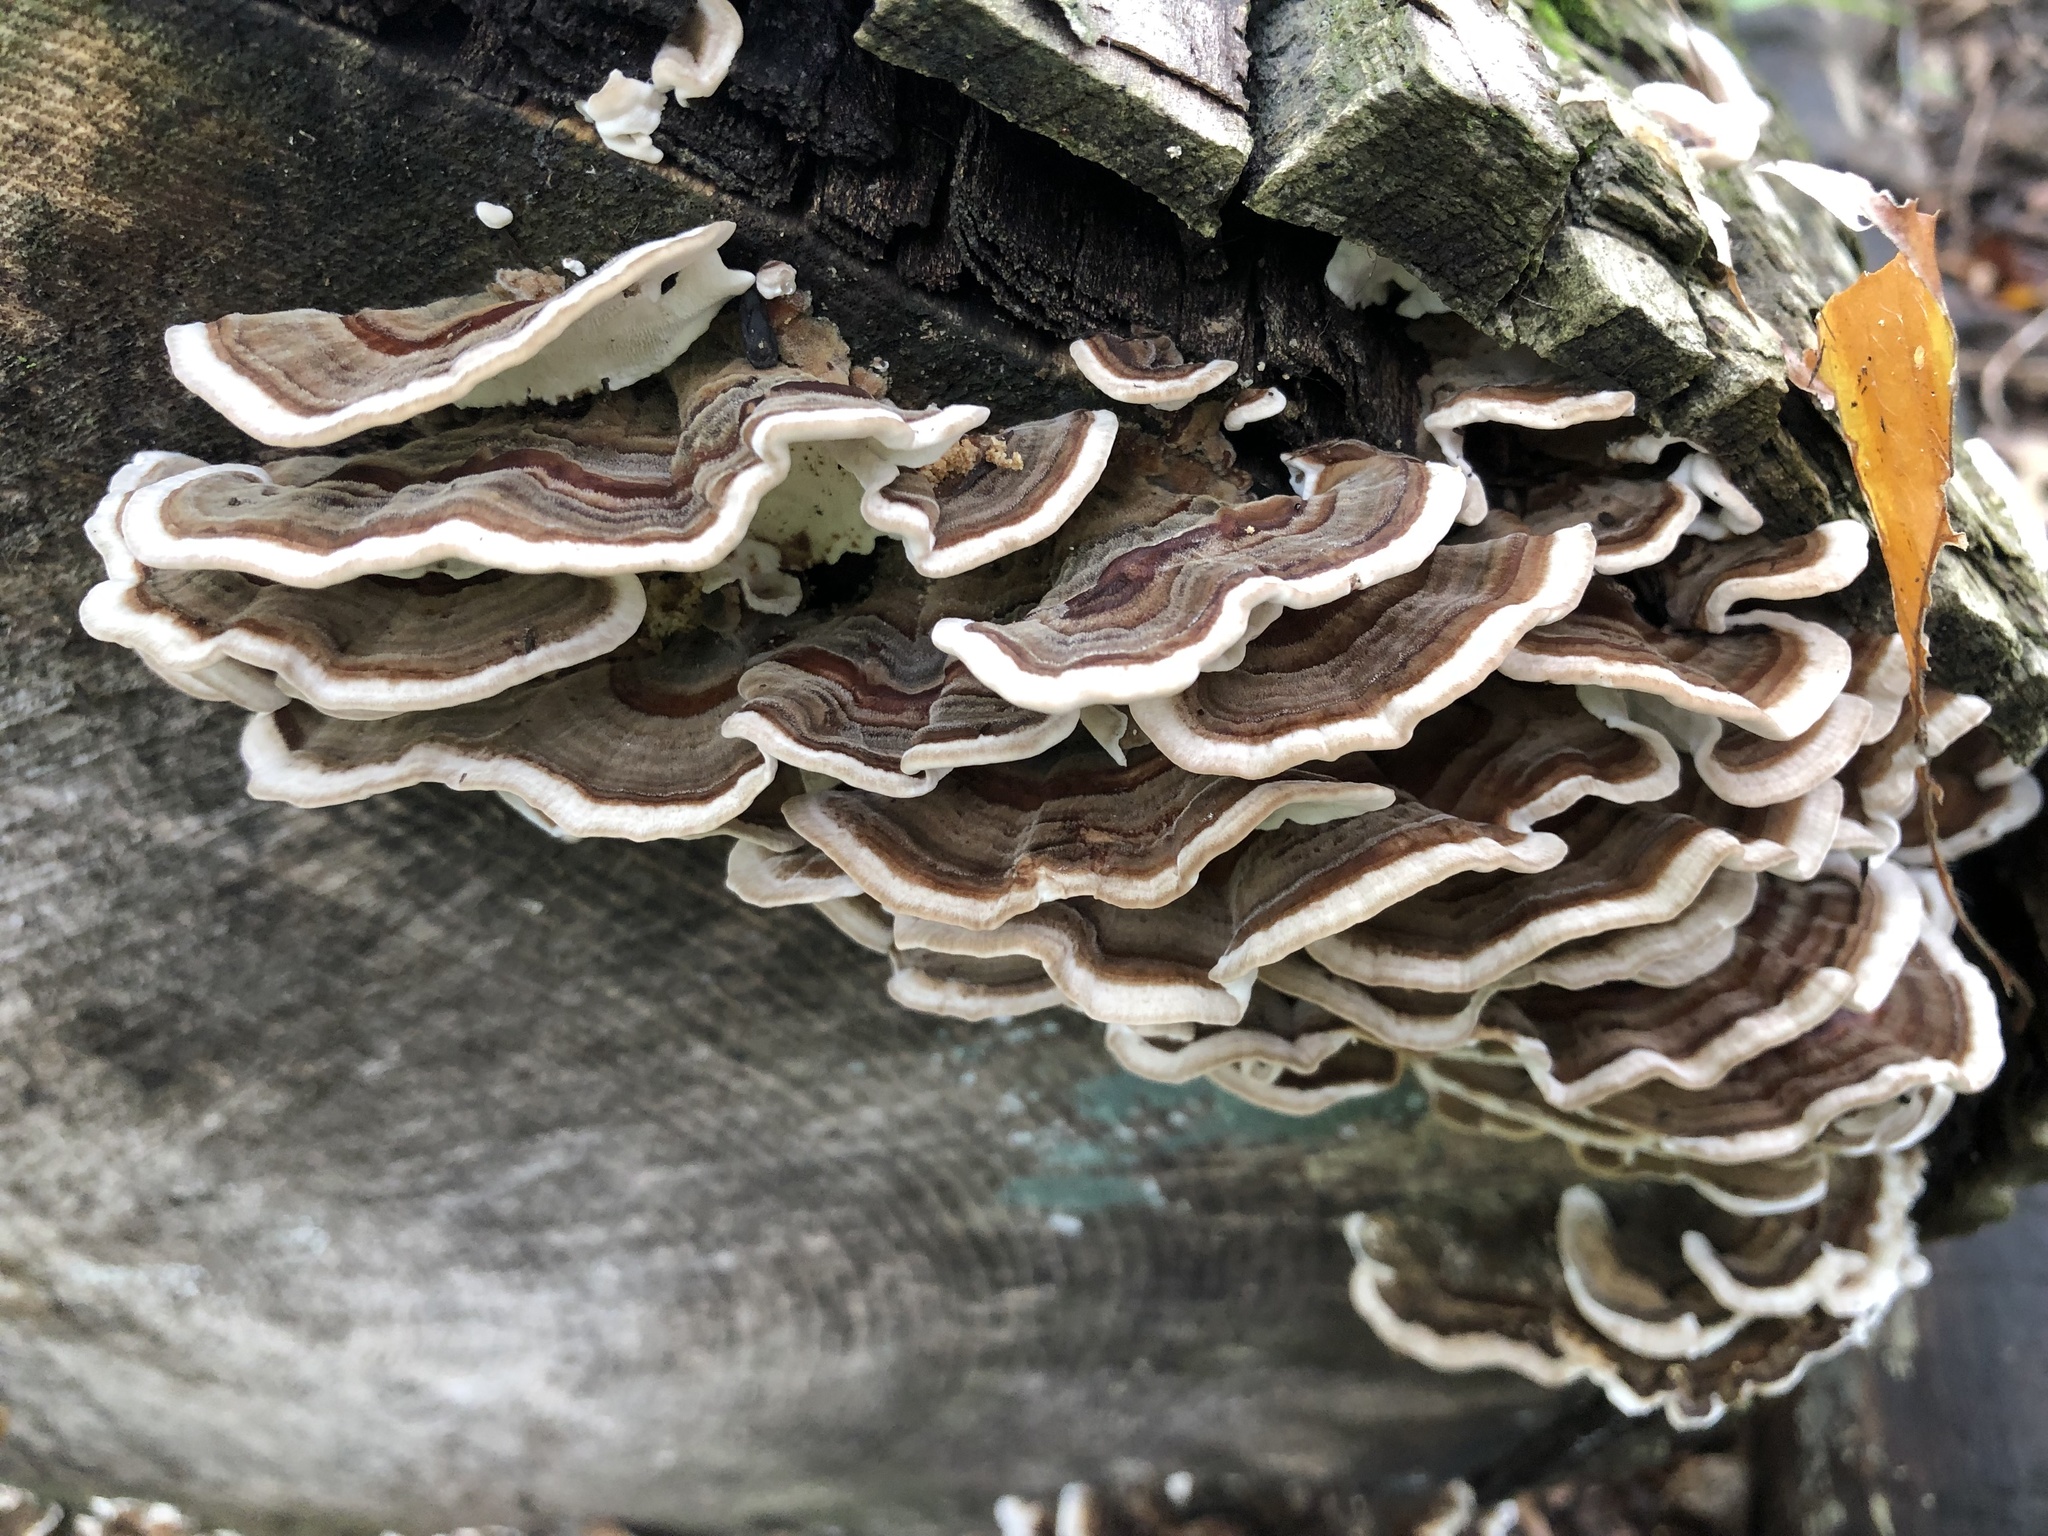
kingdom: Fungi
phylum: Basidiomycota
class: Agaricomycetes
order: Polyporales
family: Polyporaceae
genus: Trametes
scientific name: Trametes versicolor
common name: Turkeytail
